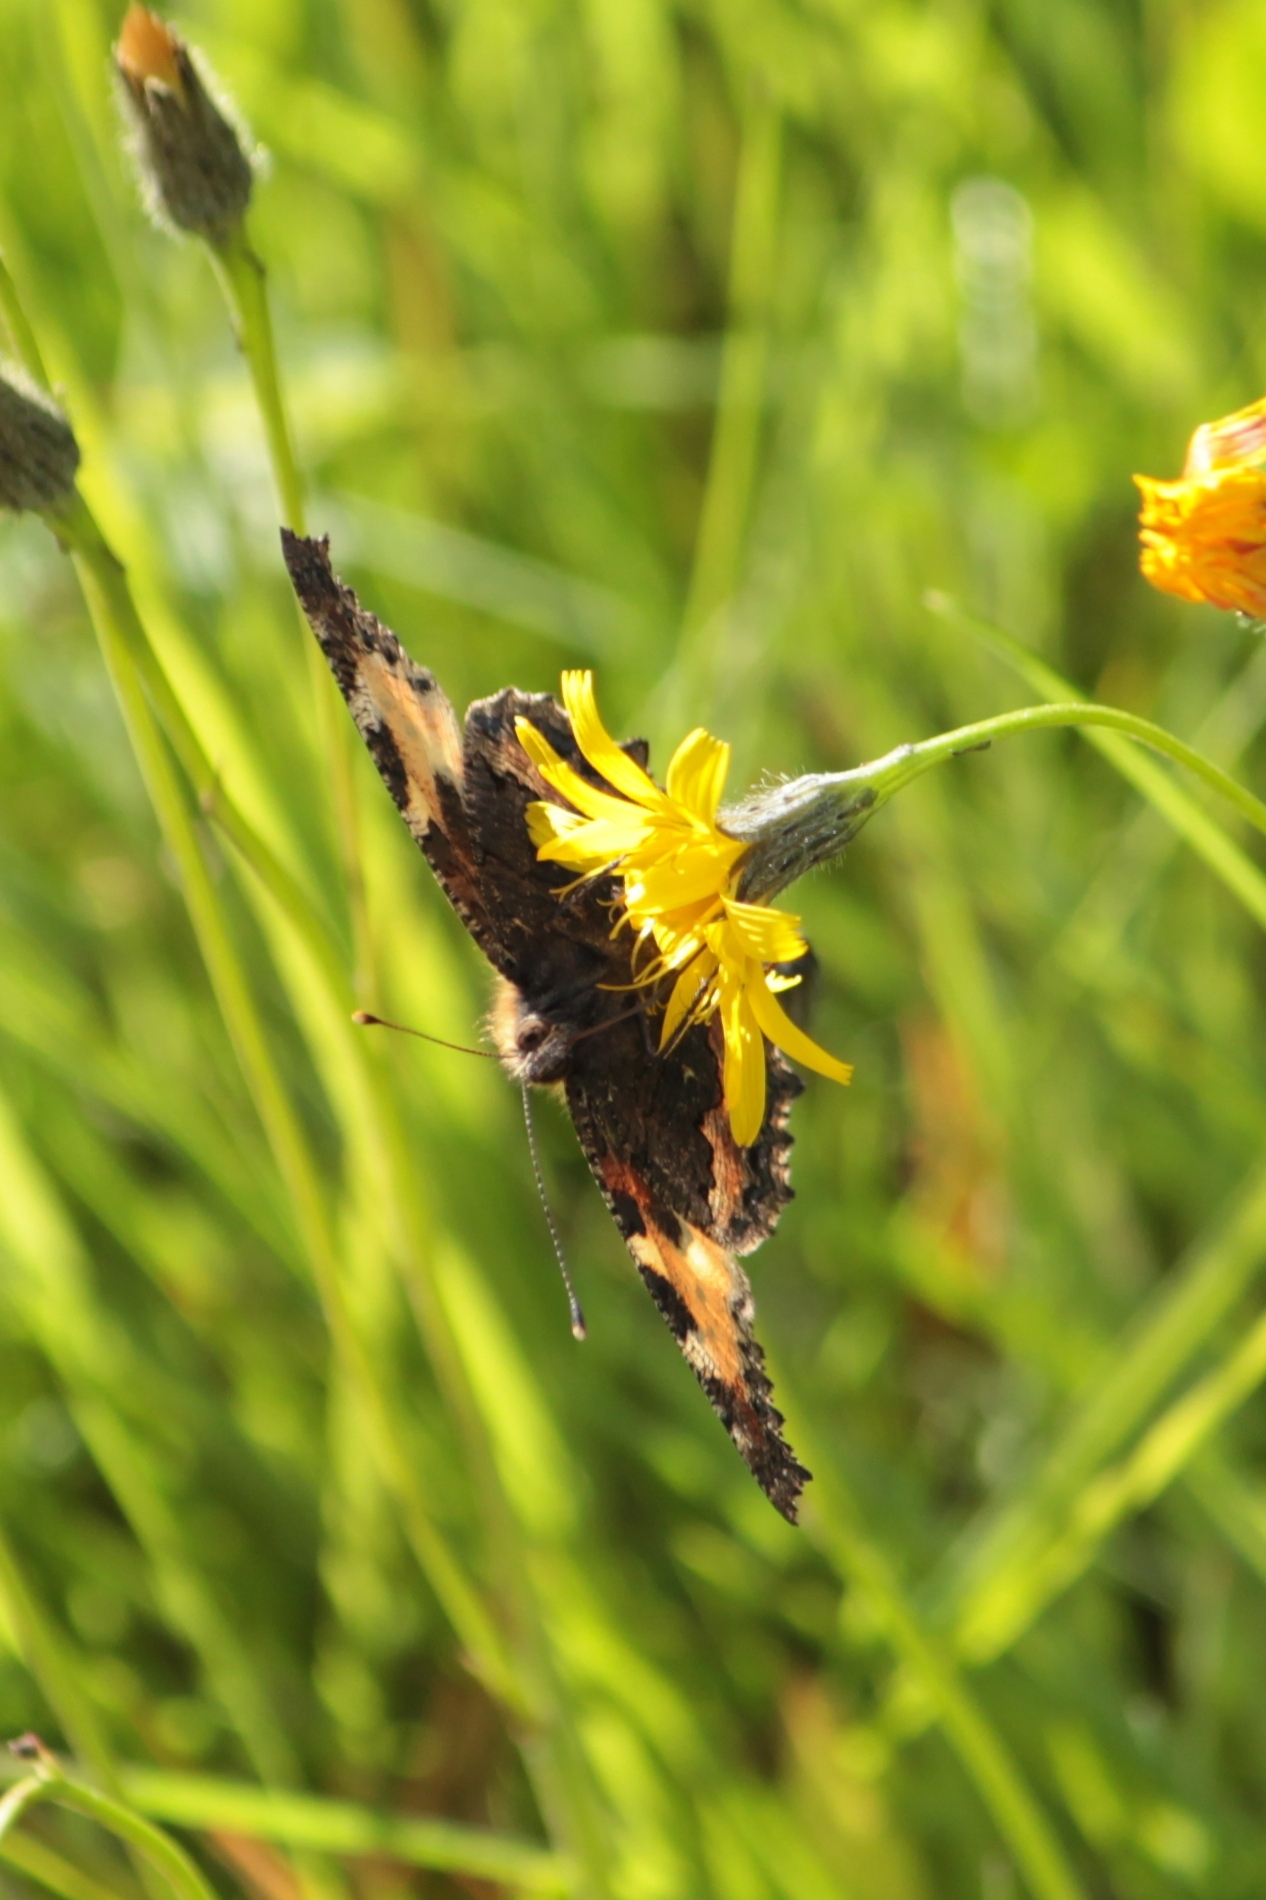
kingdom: Animalia
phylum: Arthropoda
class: Insecta
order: Lepidoptera
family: Nymphalidae
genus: Aglais
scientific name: Aglais urticae
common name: Small tortoiseshell
